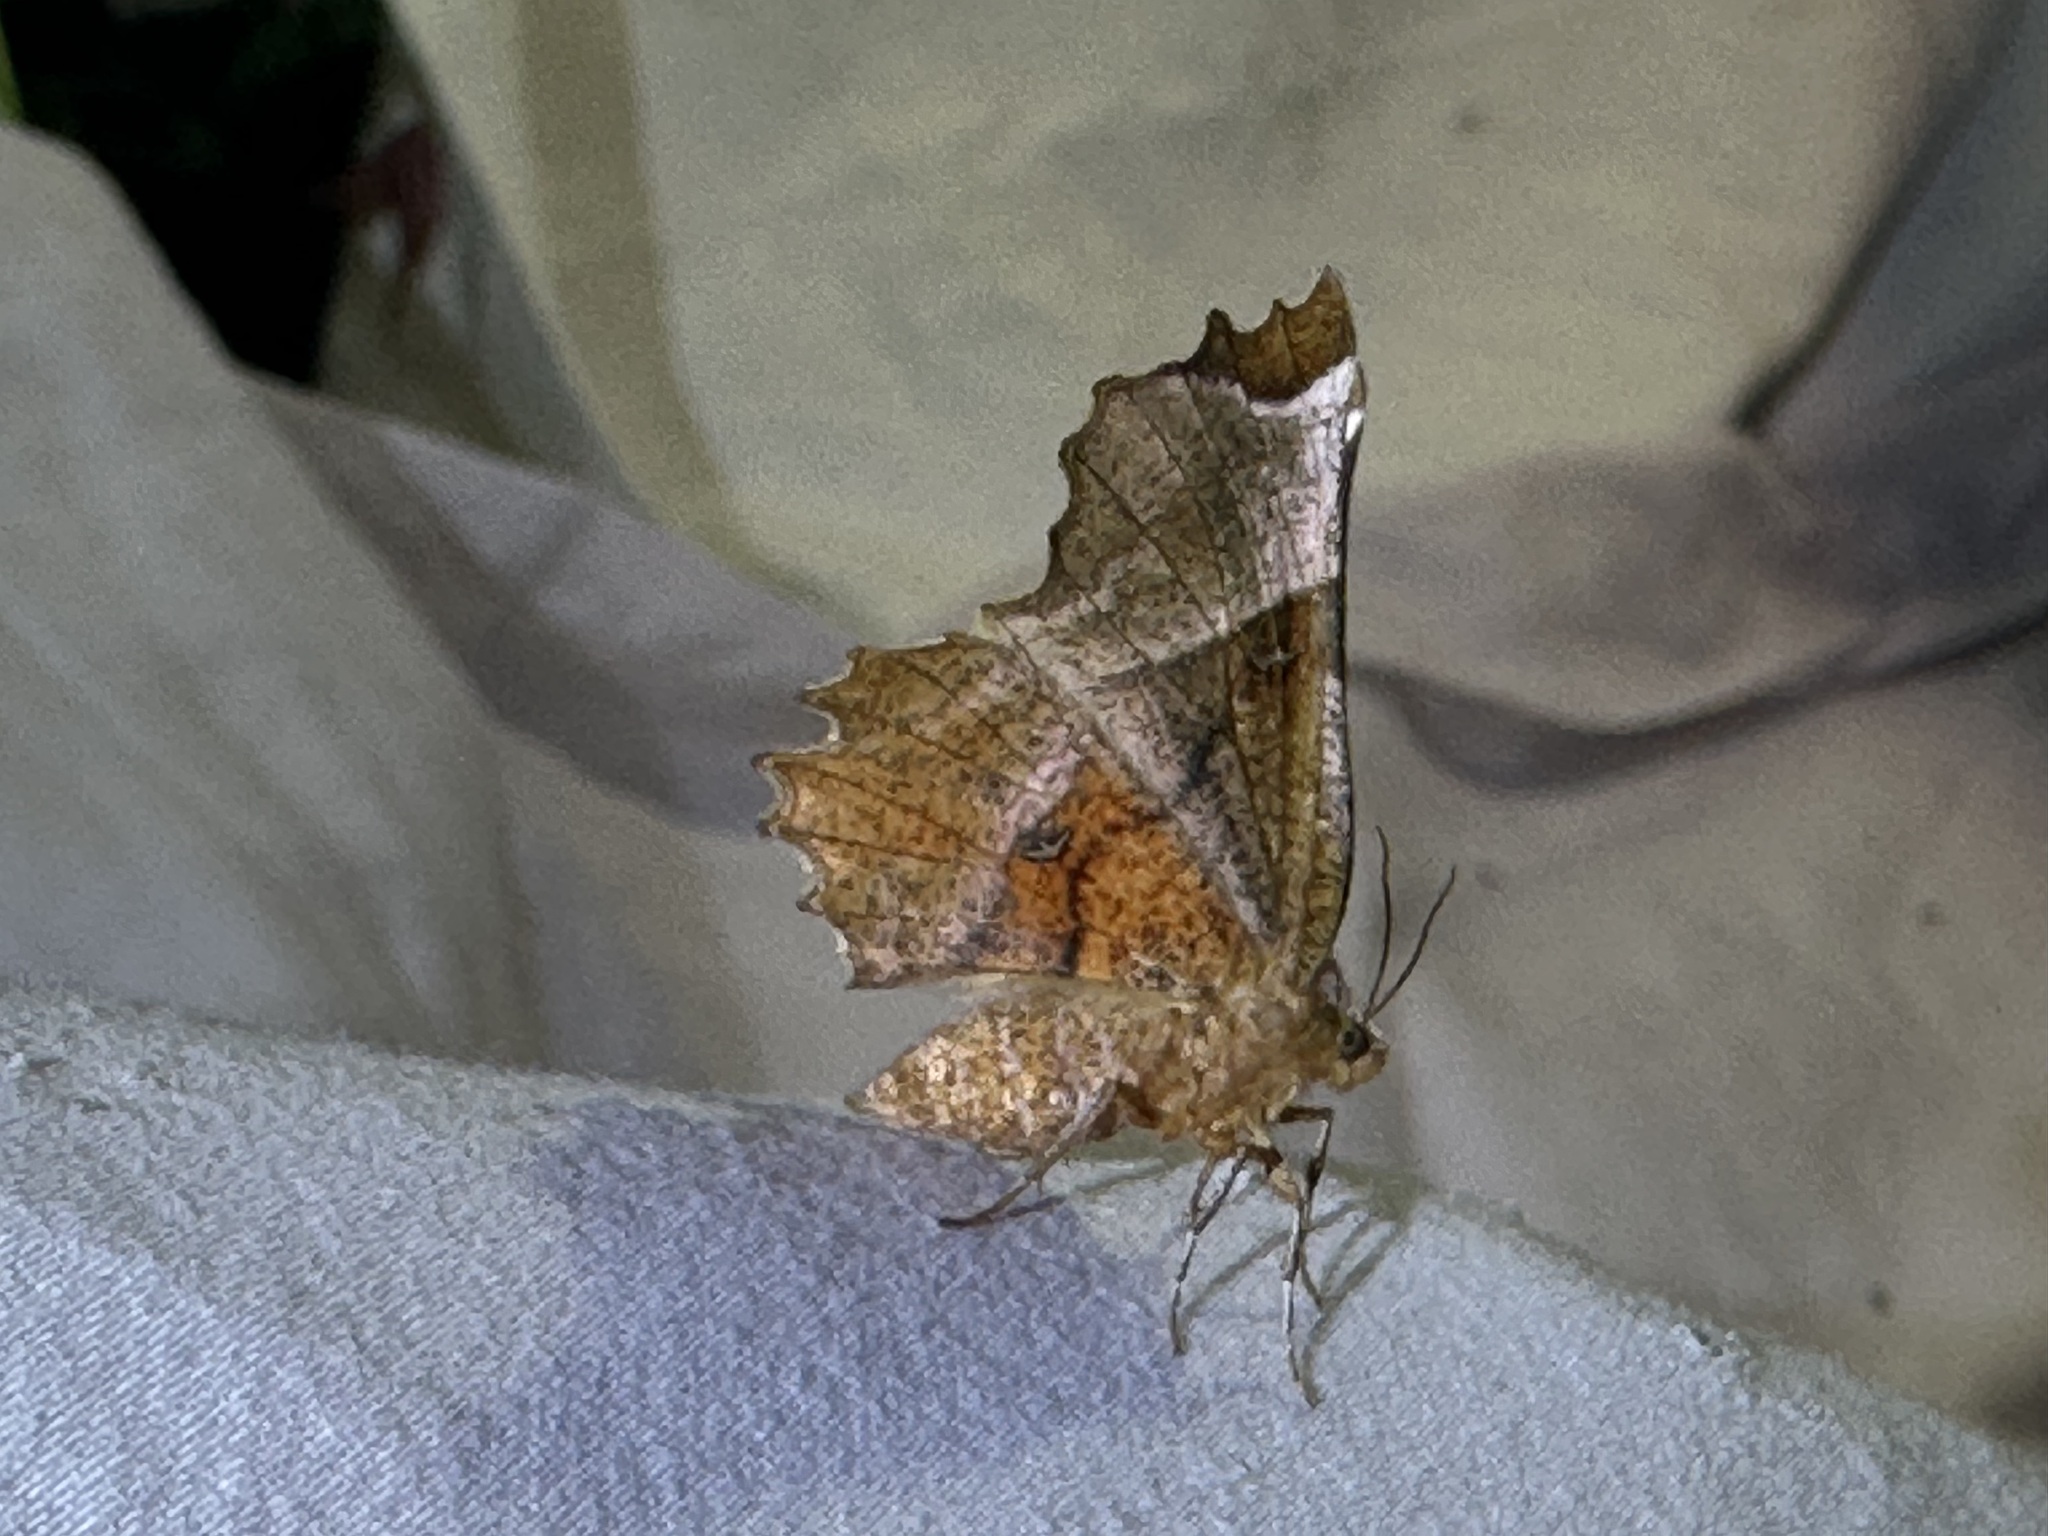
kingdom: Animalia
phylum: Arthropoda
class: Insecta
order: Lepidoptera
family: Geometridae
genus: Selenia
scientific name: Selenia lunularia
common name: Lunar thorn
